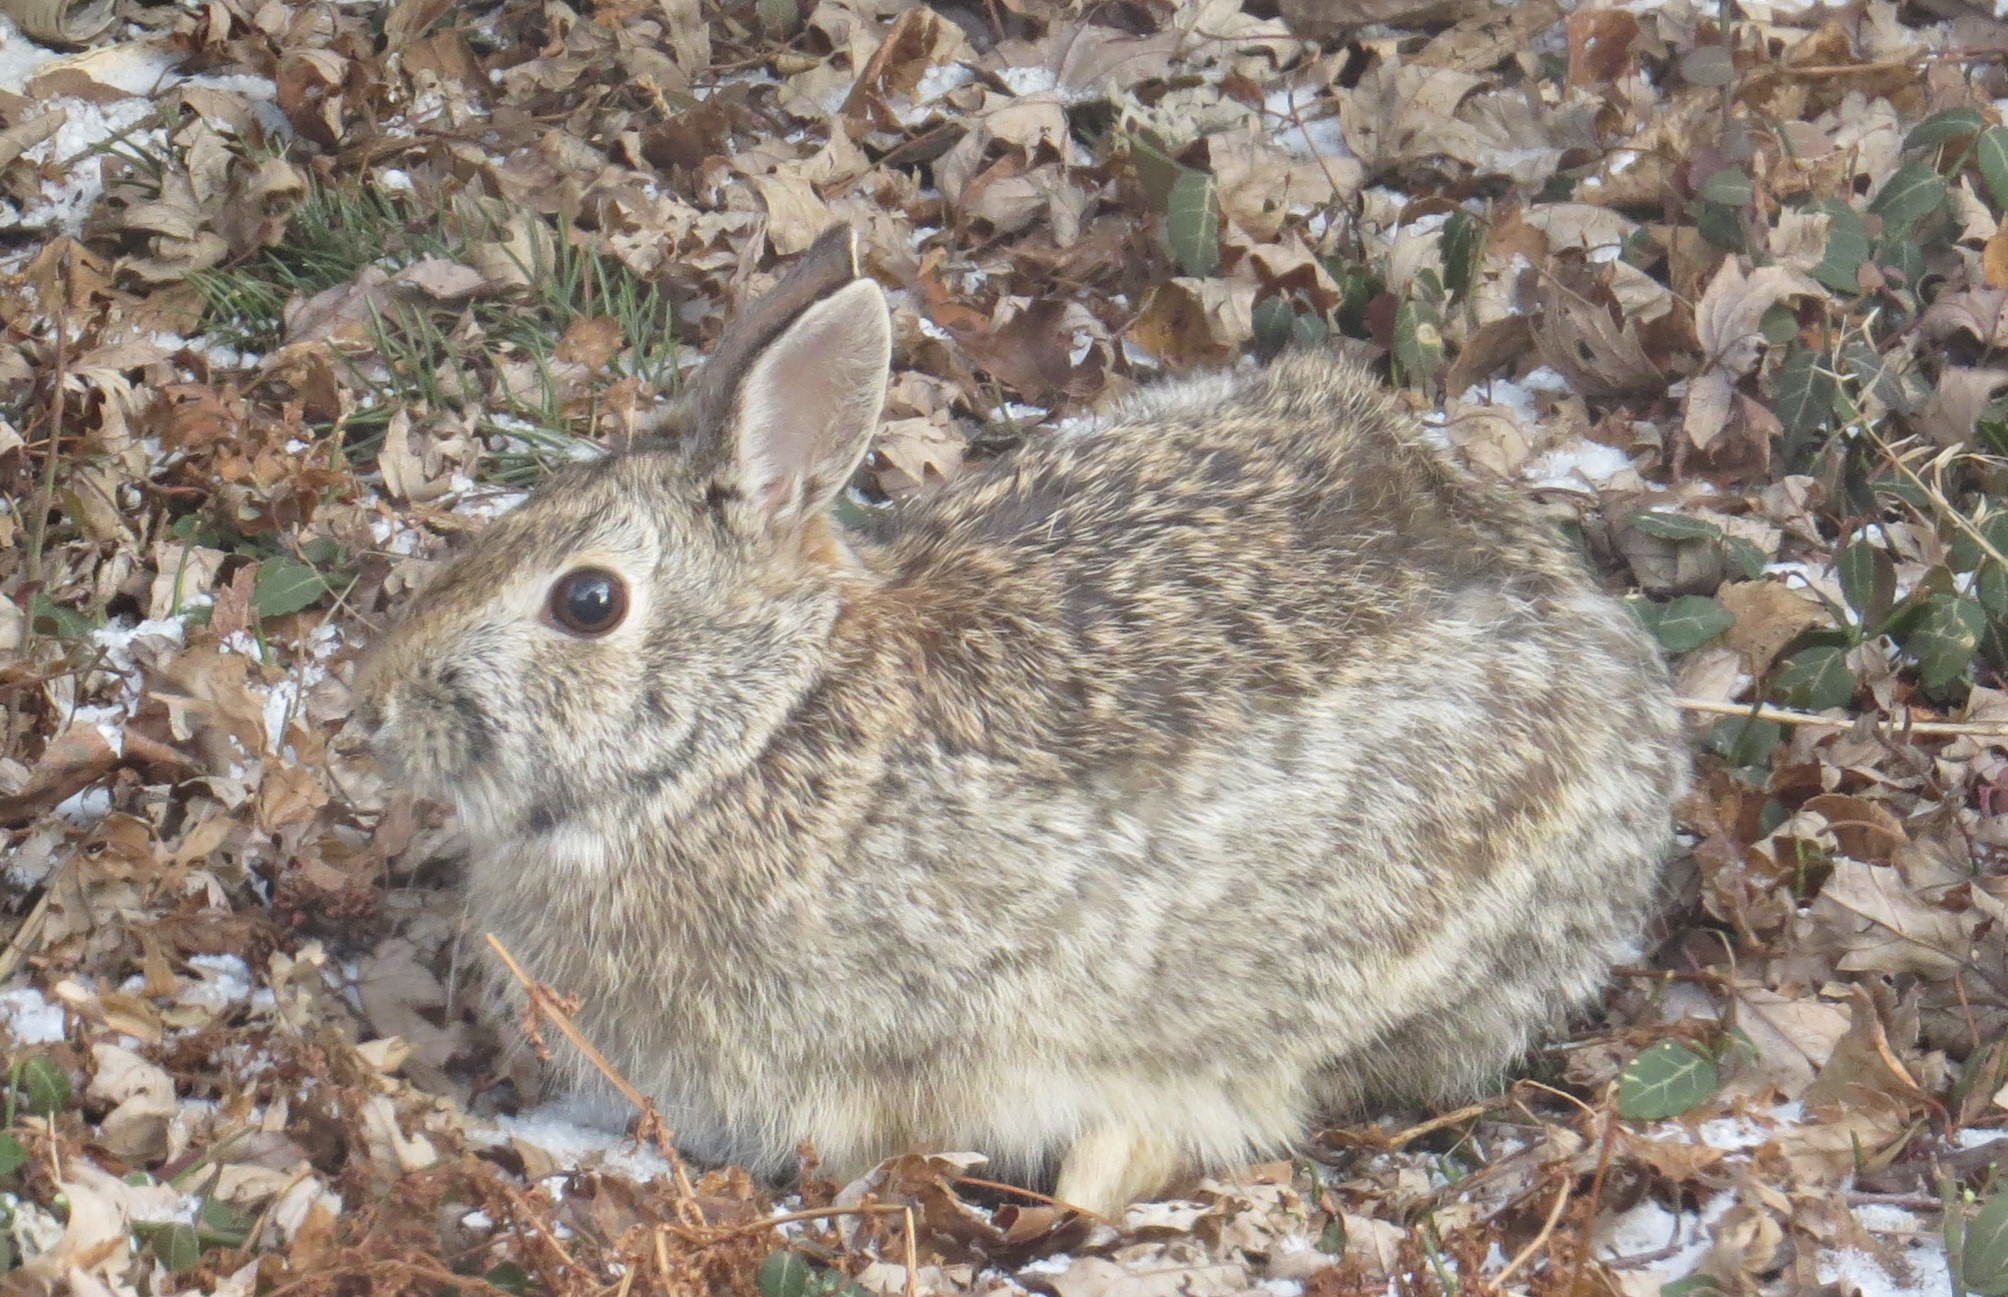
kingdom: Animalia
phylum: Chordata
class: Mammalia
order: Lagomorpha
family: Leporidae
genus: Sylvilagus
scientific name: Sylvilagus floridanus
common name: Eastern cottontail
